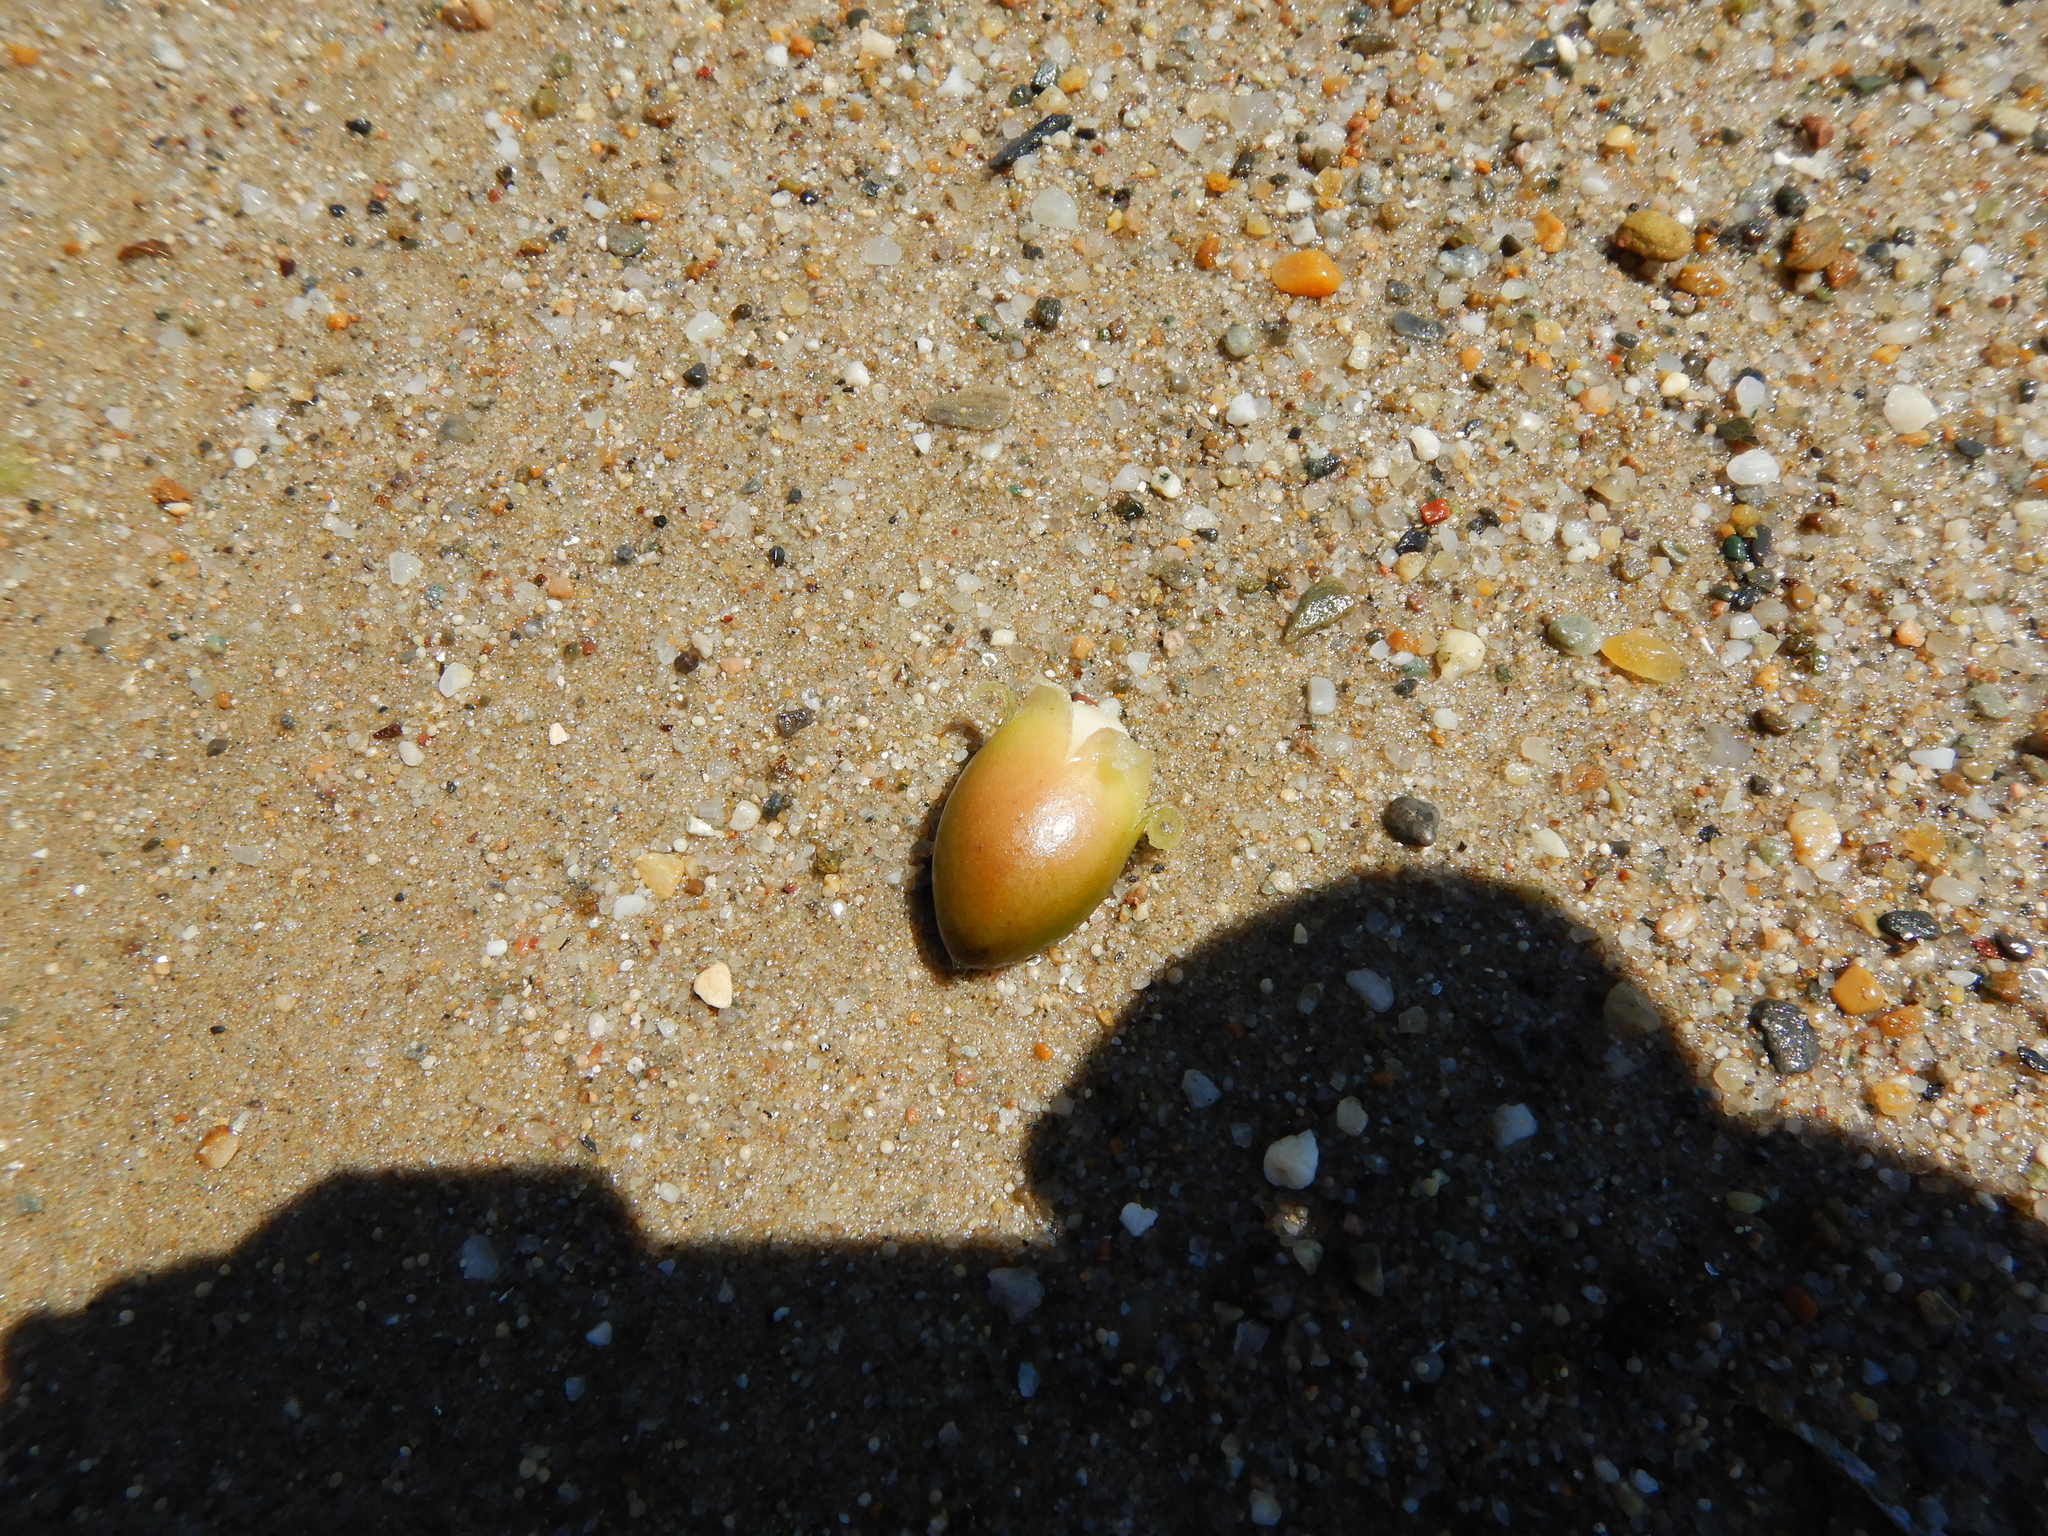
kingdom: Plantae
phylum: Tracheophyta
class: Liliopsida
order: Alismatales
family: Posidoniaceae
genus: Posidonia
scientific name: Posidonia oceanica
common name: Mediterranean tapeweed
